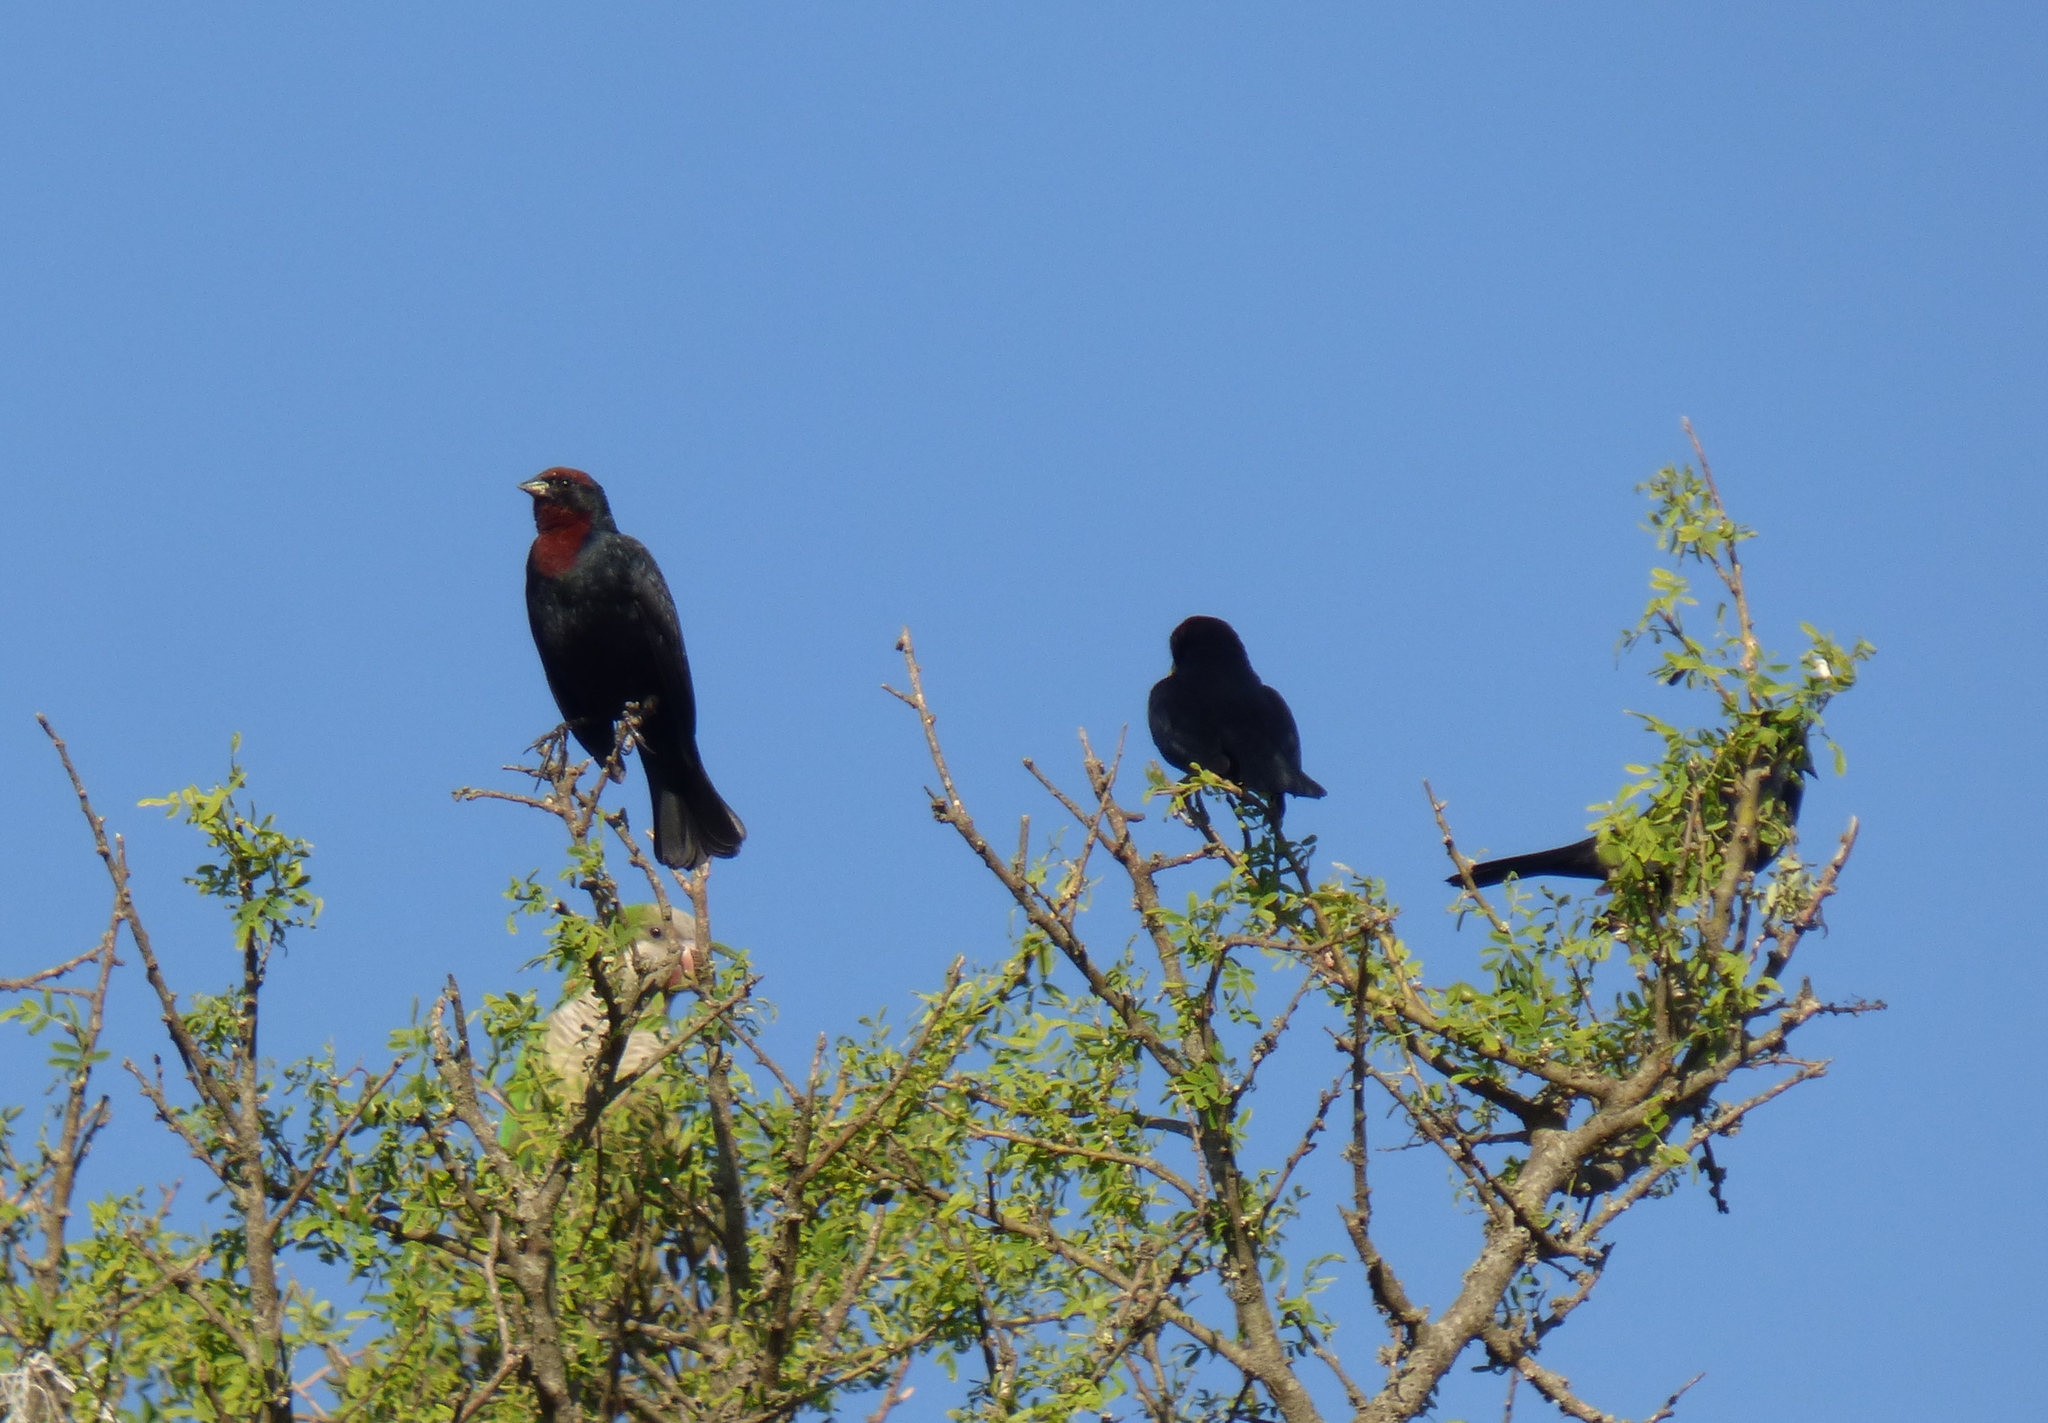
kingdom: Animalia
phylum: Chordata
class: Aves
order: Passeriformes
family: Icteridae
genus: Chrysomus
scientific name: Chrysomus ruficapillus
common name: Chestnut-capped blackbird
